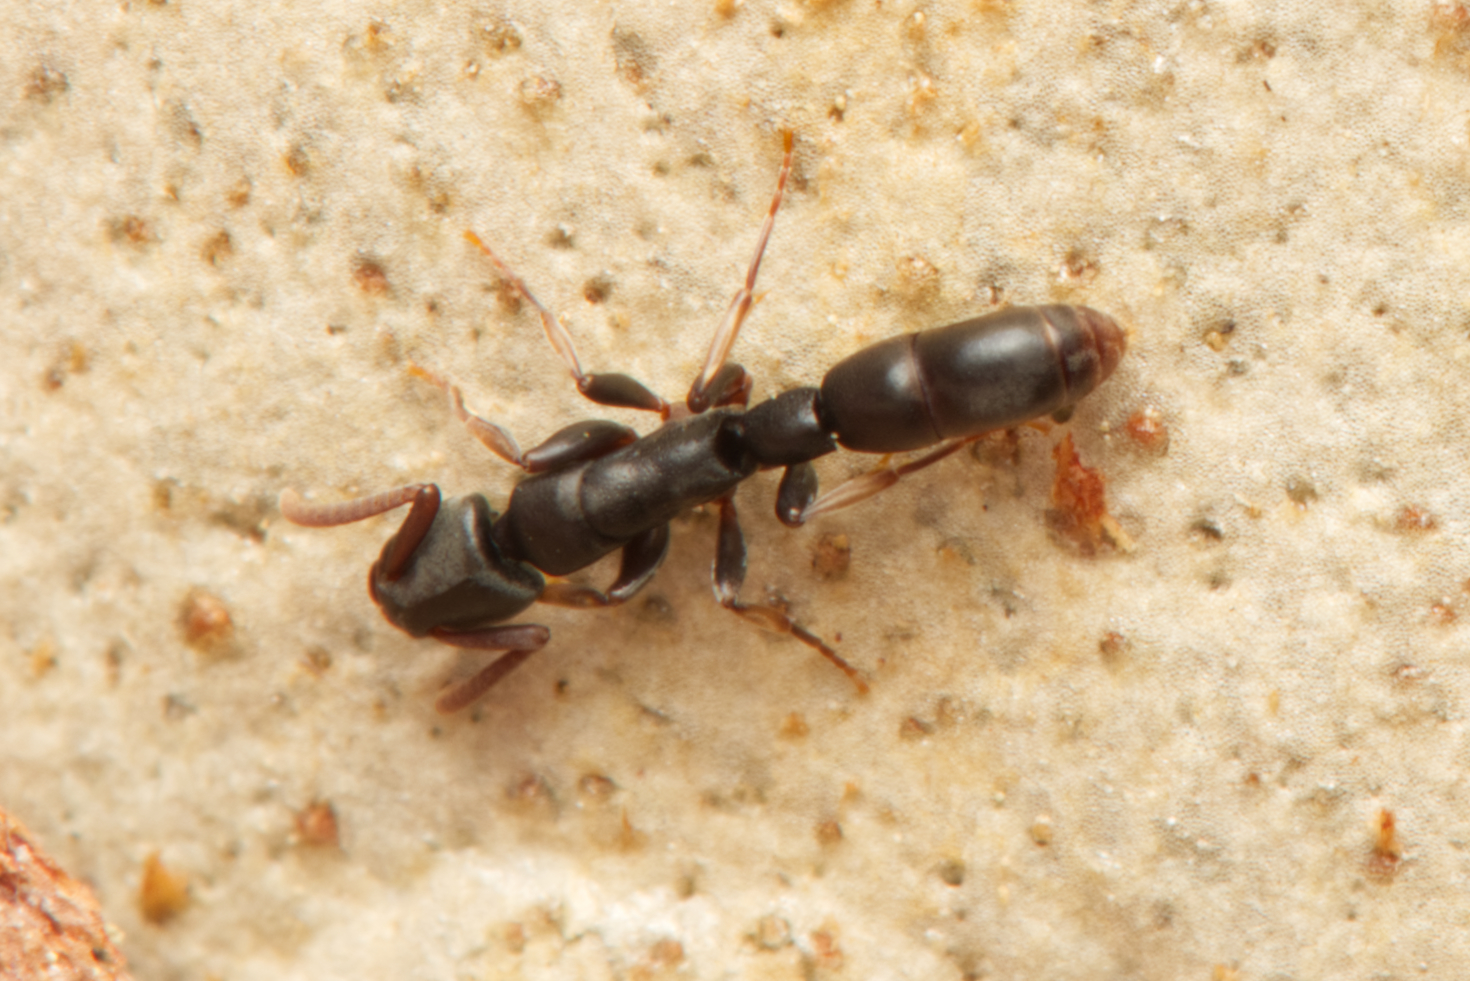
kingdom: Animalia
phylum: Arthropoda
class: Insecta
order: Hymenoptera
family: Formicidae
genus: Platythyrea
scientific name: Platythyrea parallela
